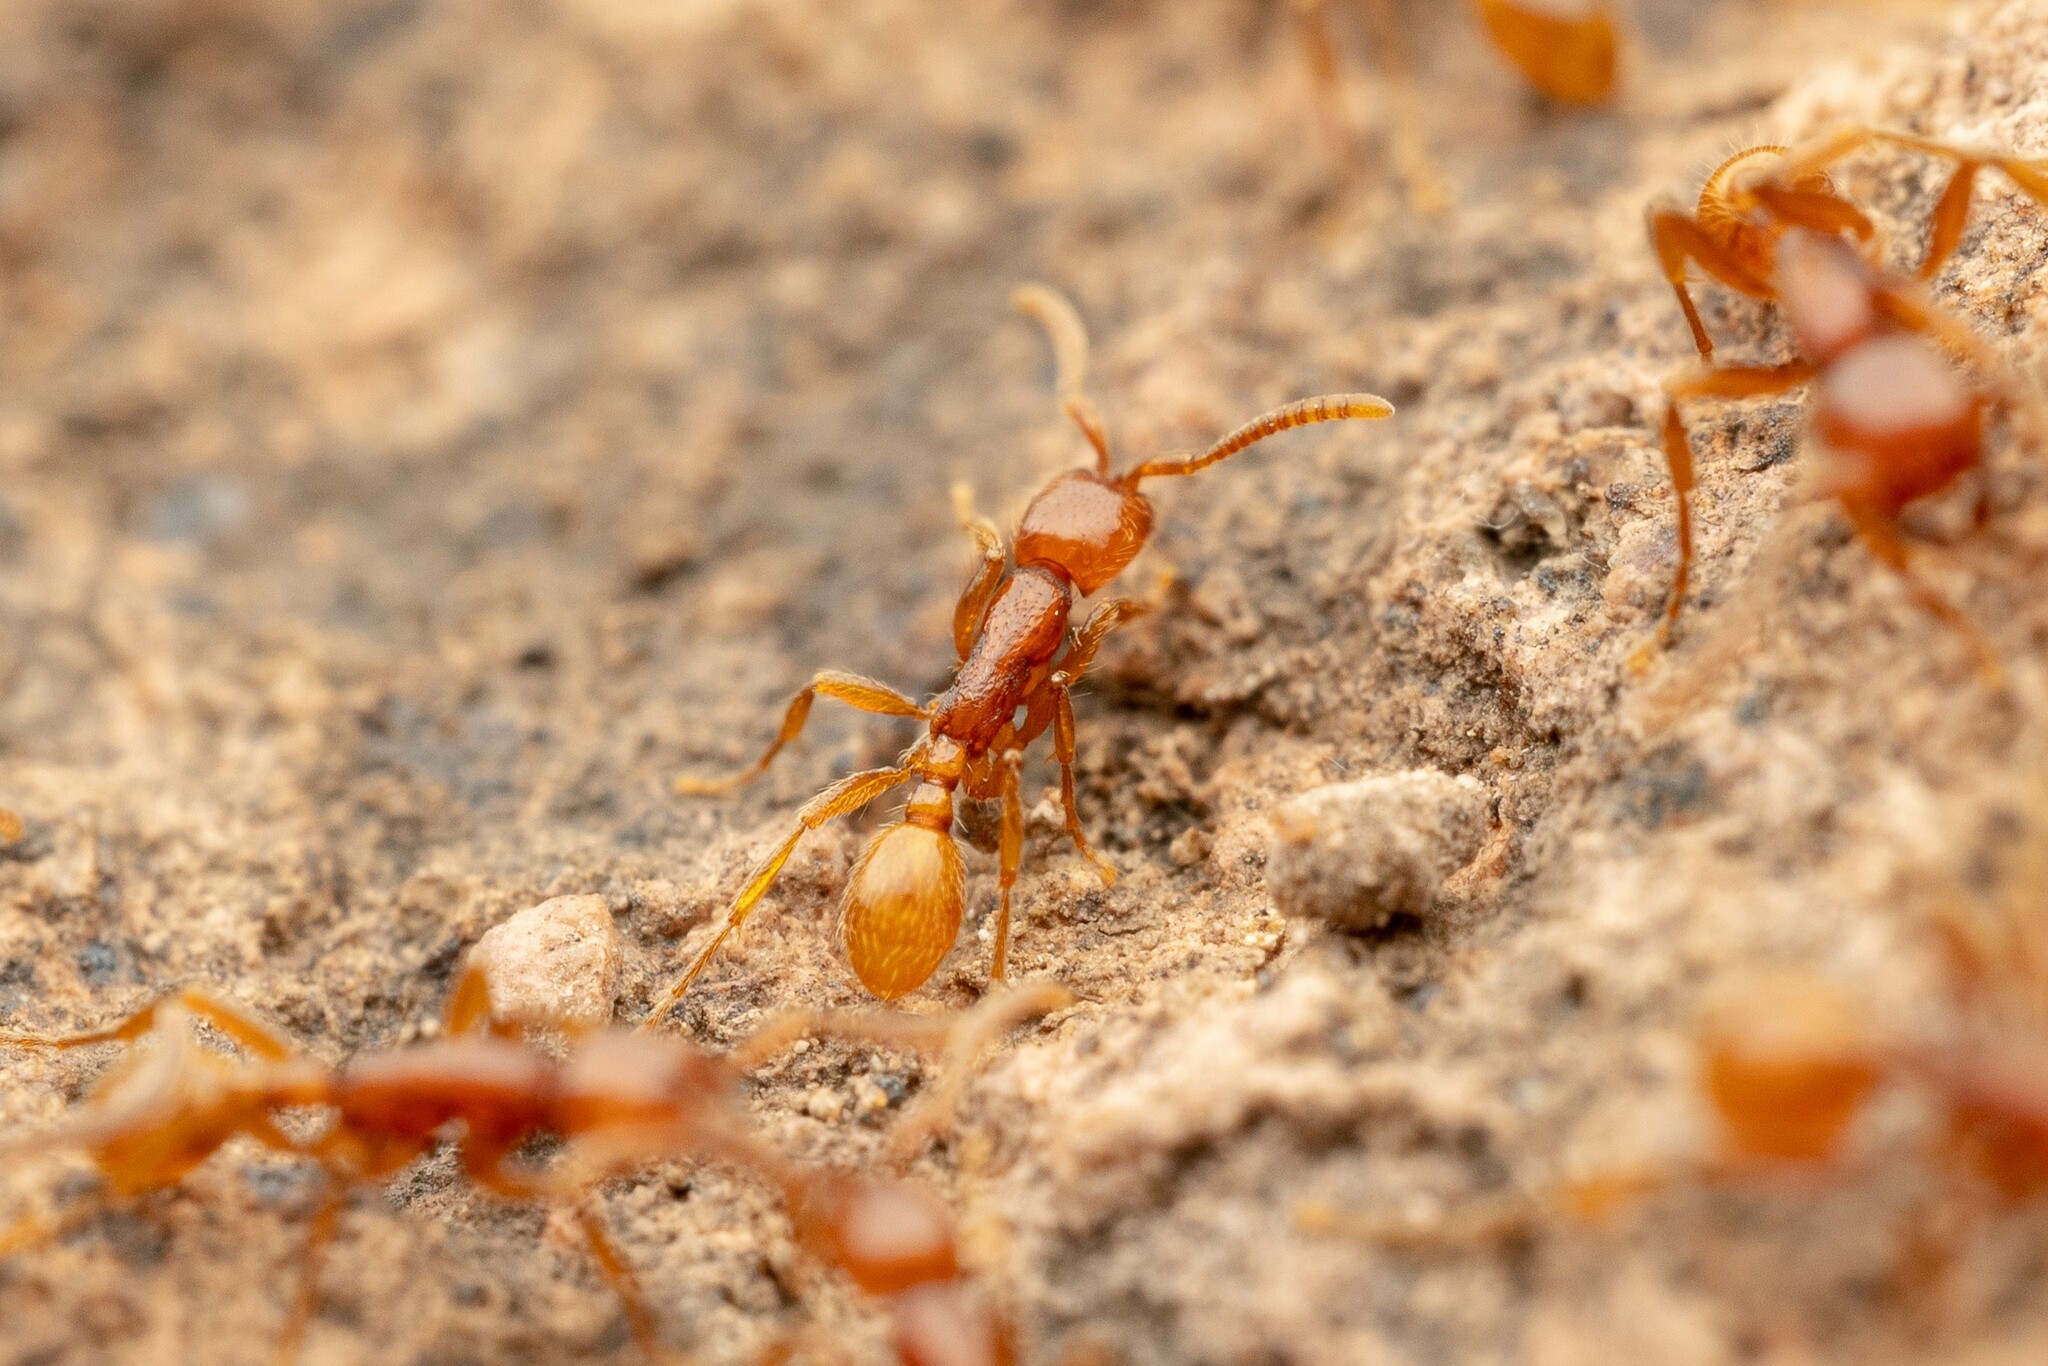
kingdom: Animalia
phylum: Arthropoda
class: Insecta
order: Hymenoptera
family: Formicidae
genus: Neivamyrmex
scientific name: Neivamyrmex opacithorax
